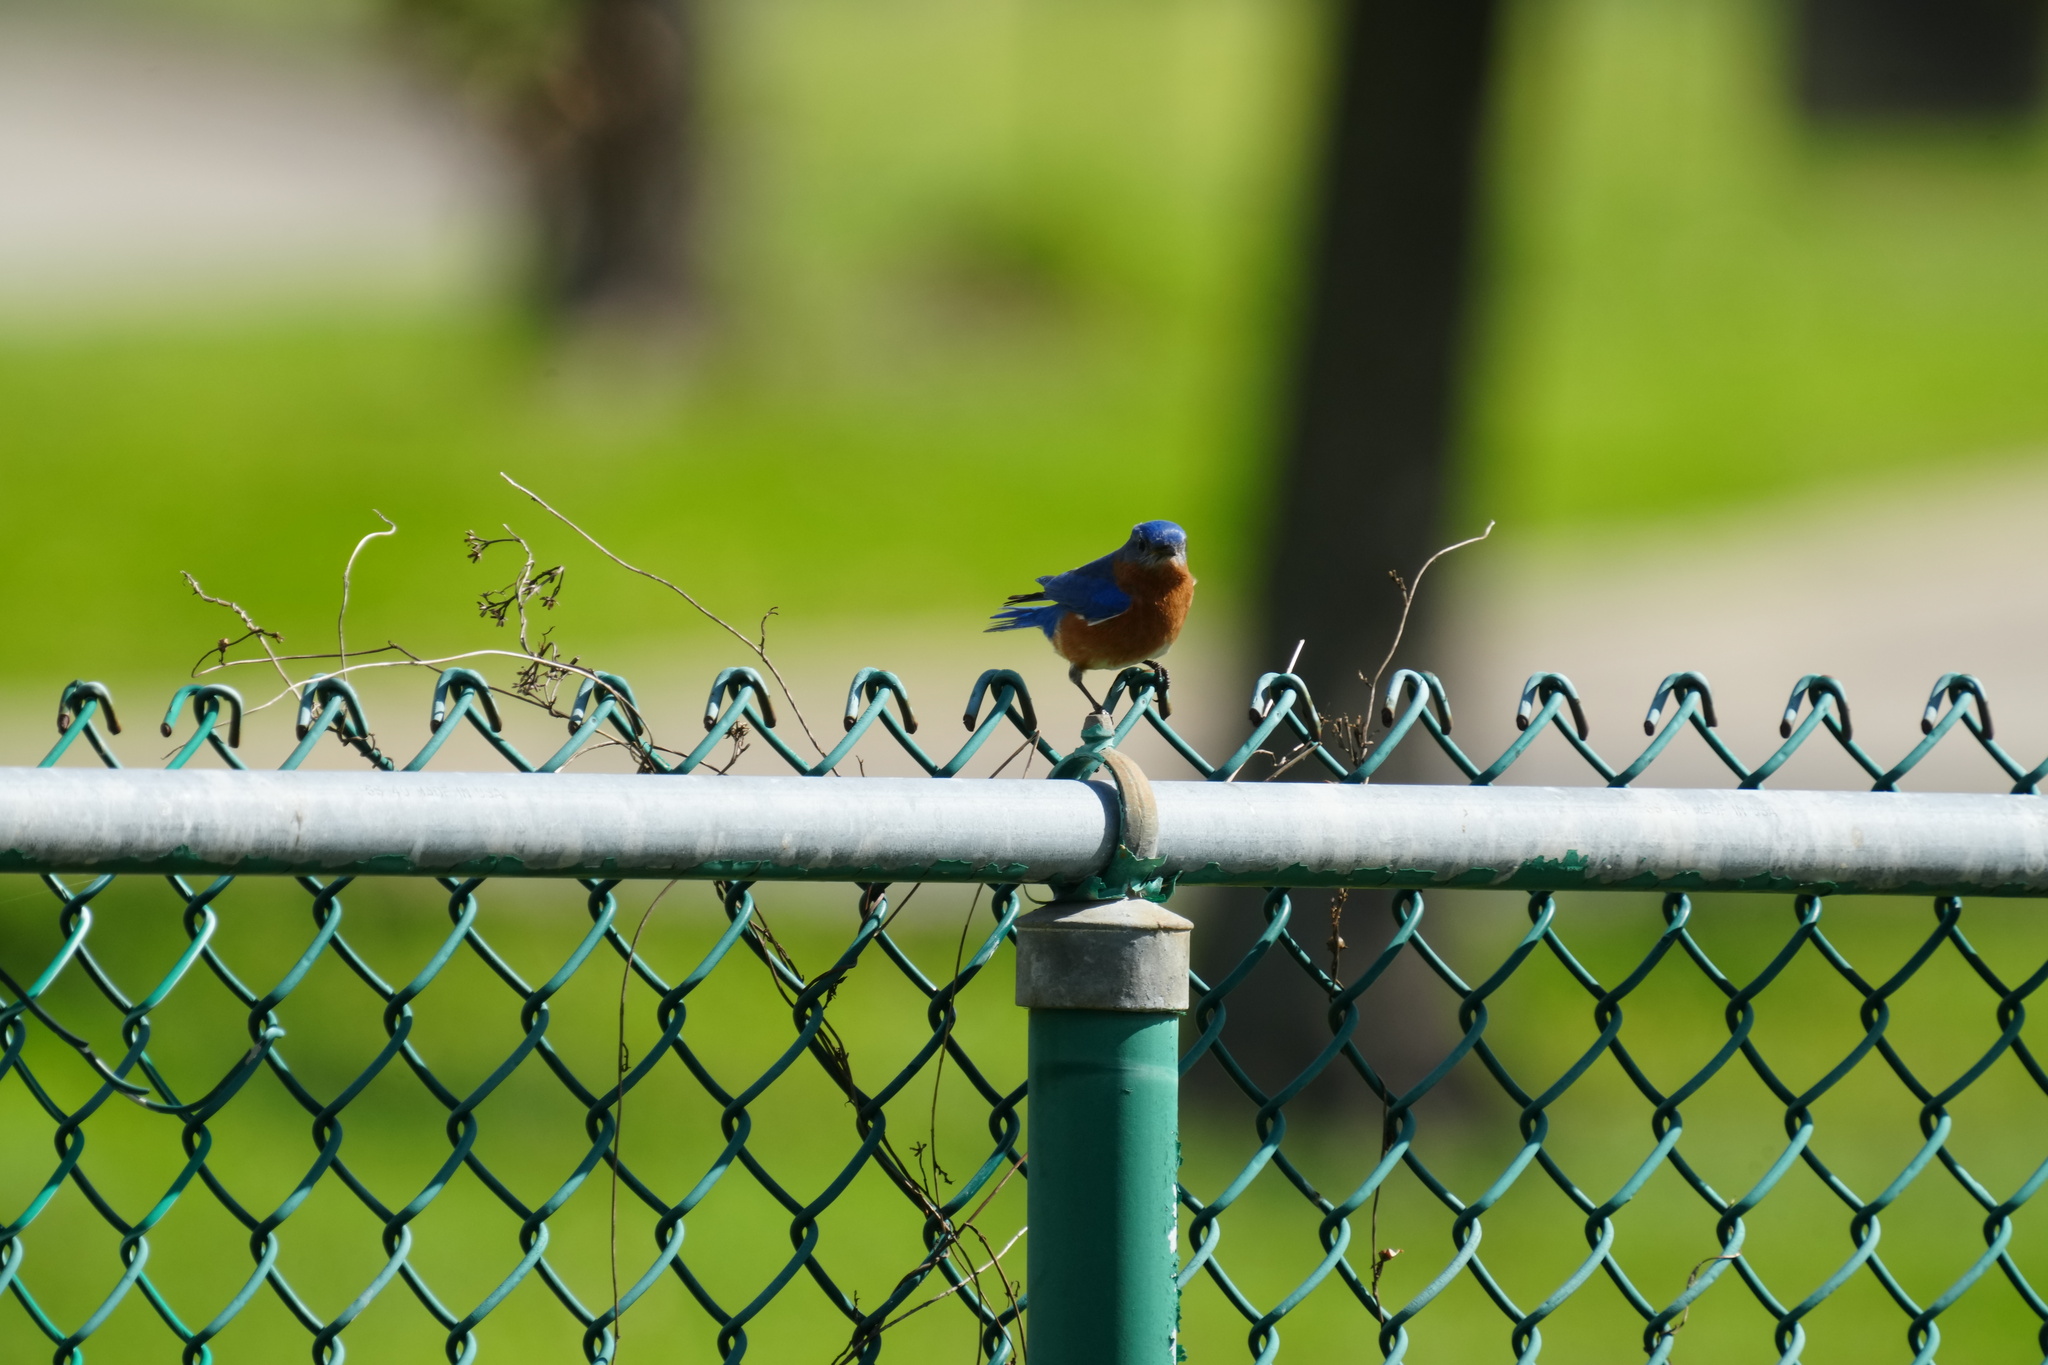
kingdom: Animalia
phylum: Chordata
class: Aves
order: Passeriformes
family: Turdidae
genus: Sialia
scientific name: Sialia sialis
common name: Eastern bluebird
